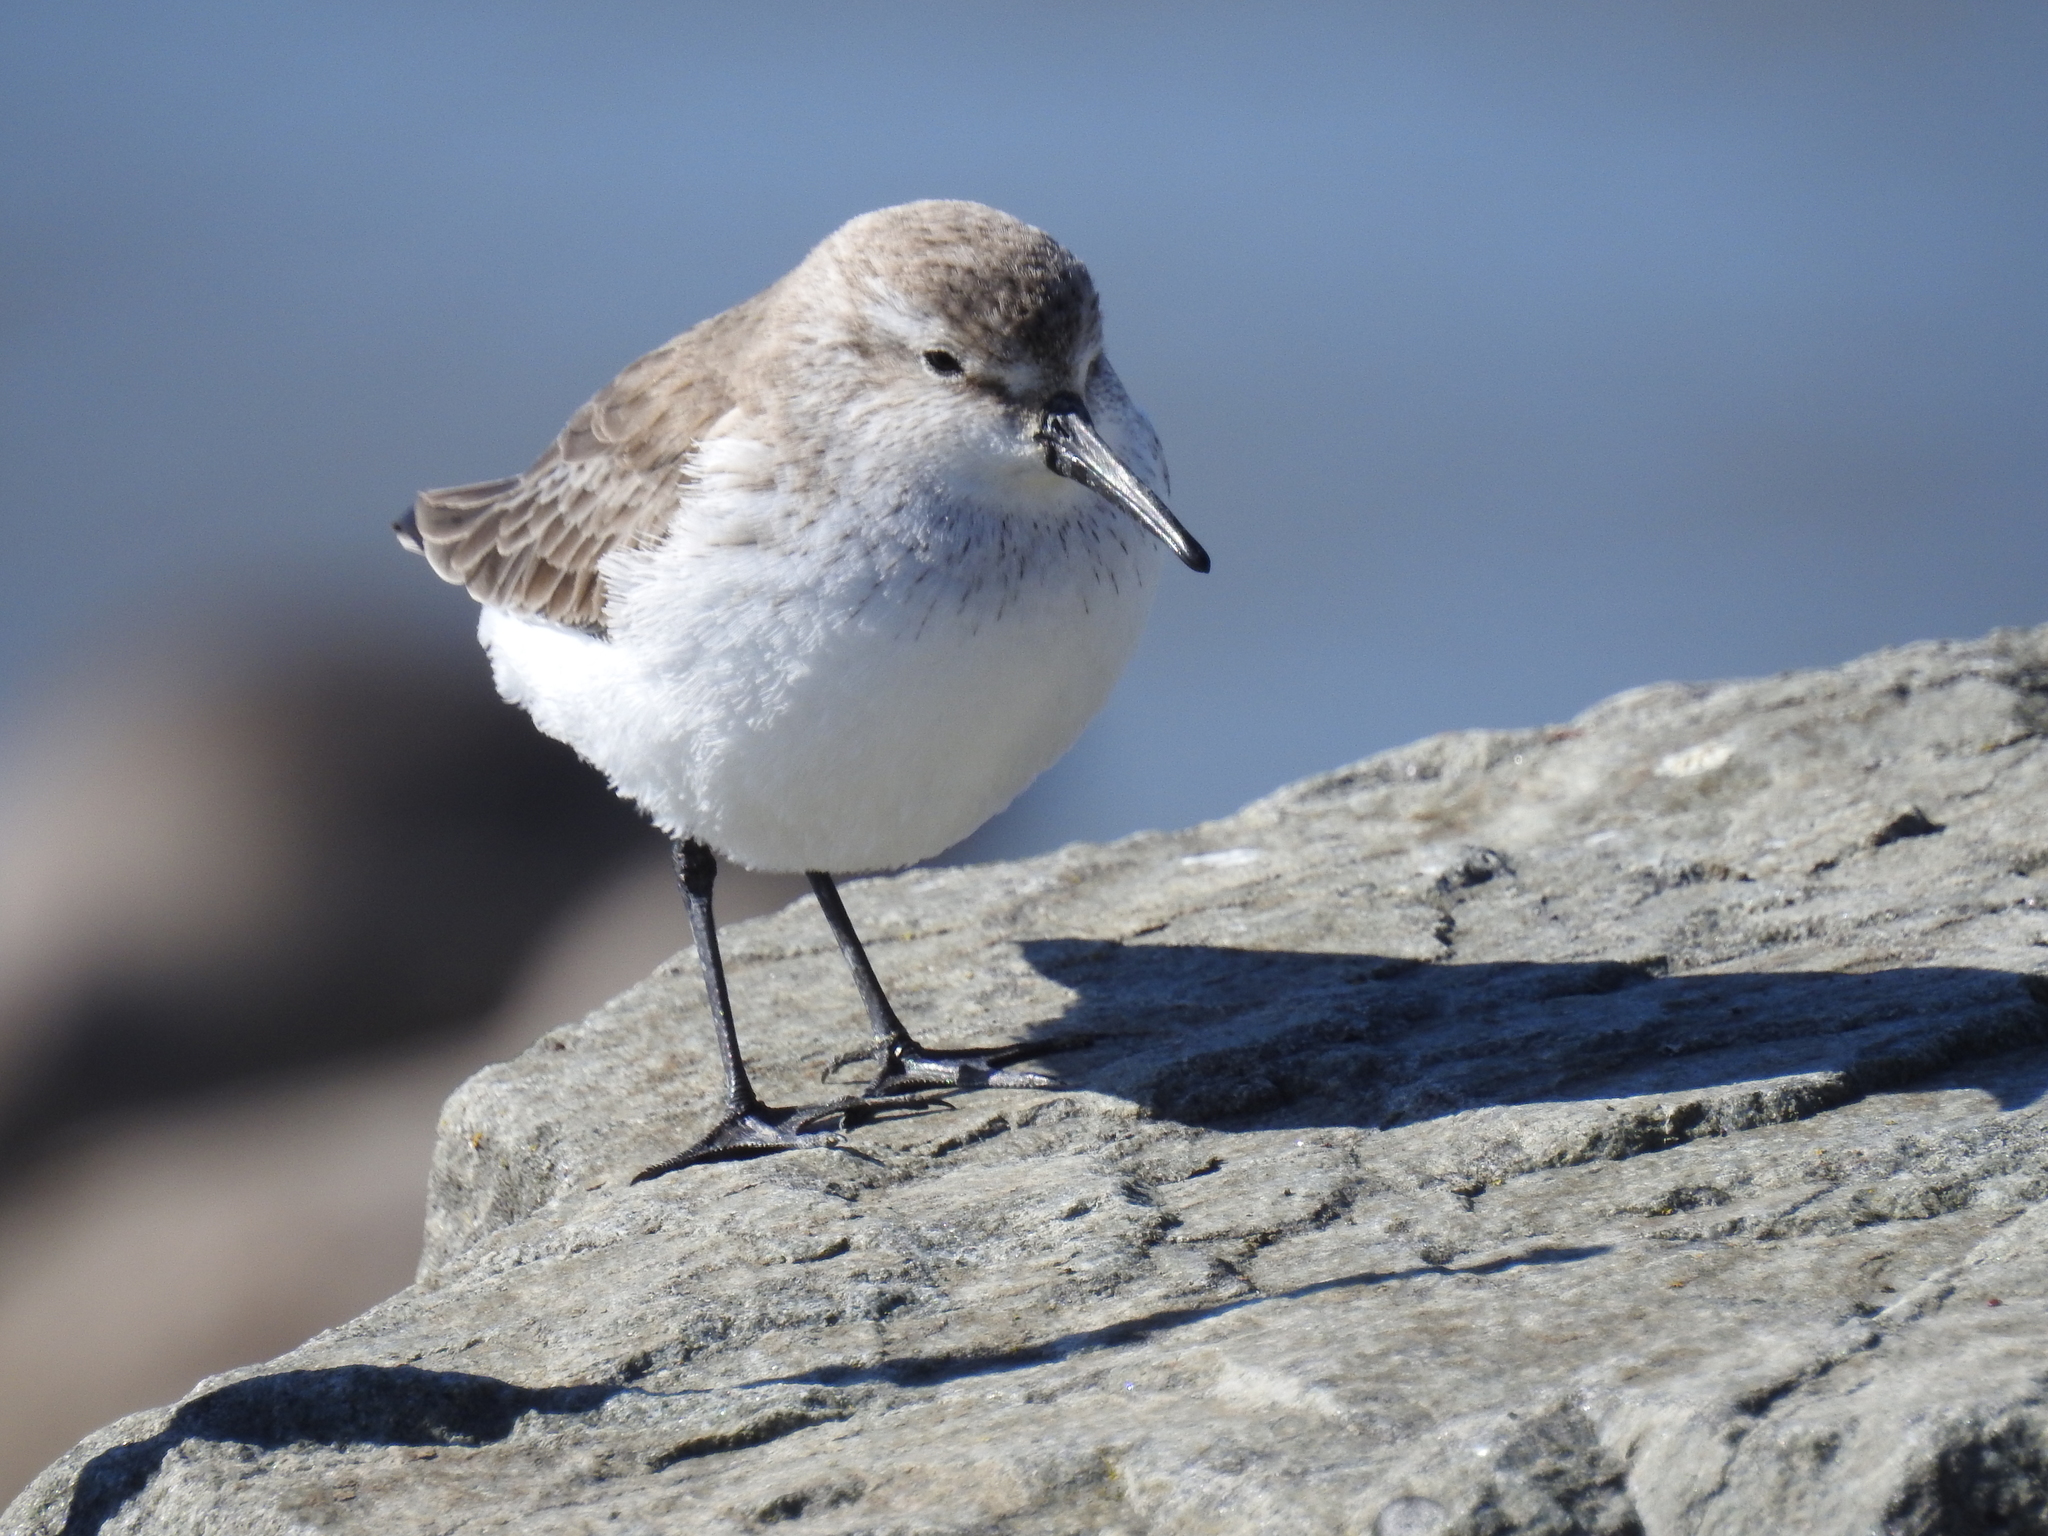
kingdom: Animalia
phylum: Chordata
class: Aves
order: Charadriiformes
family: Scolopacidae
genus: Calidris
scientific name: Calidris mauri
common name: Western sandpiper
